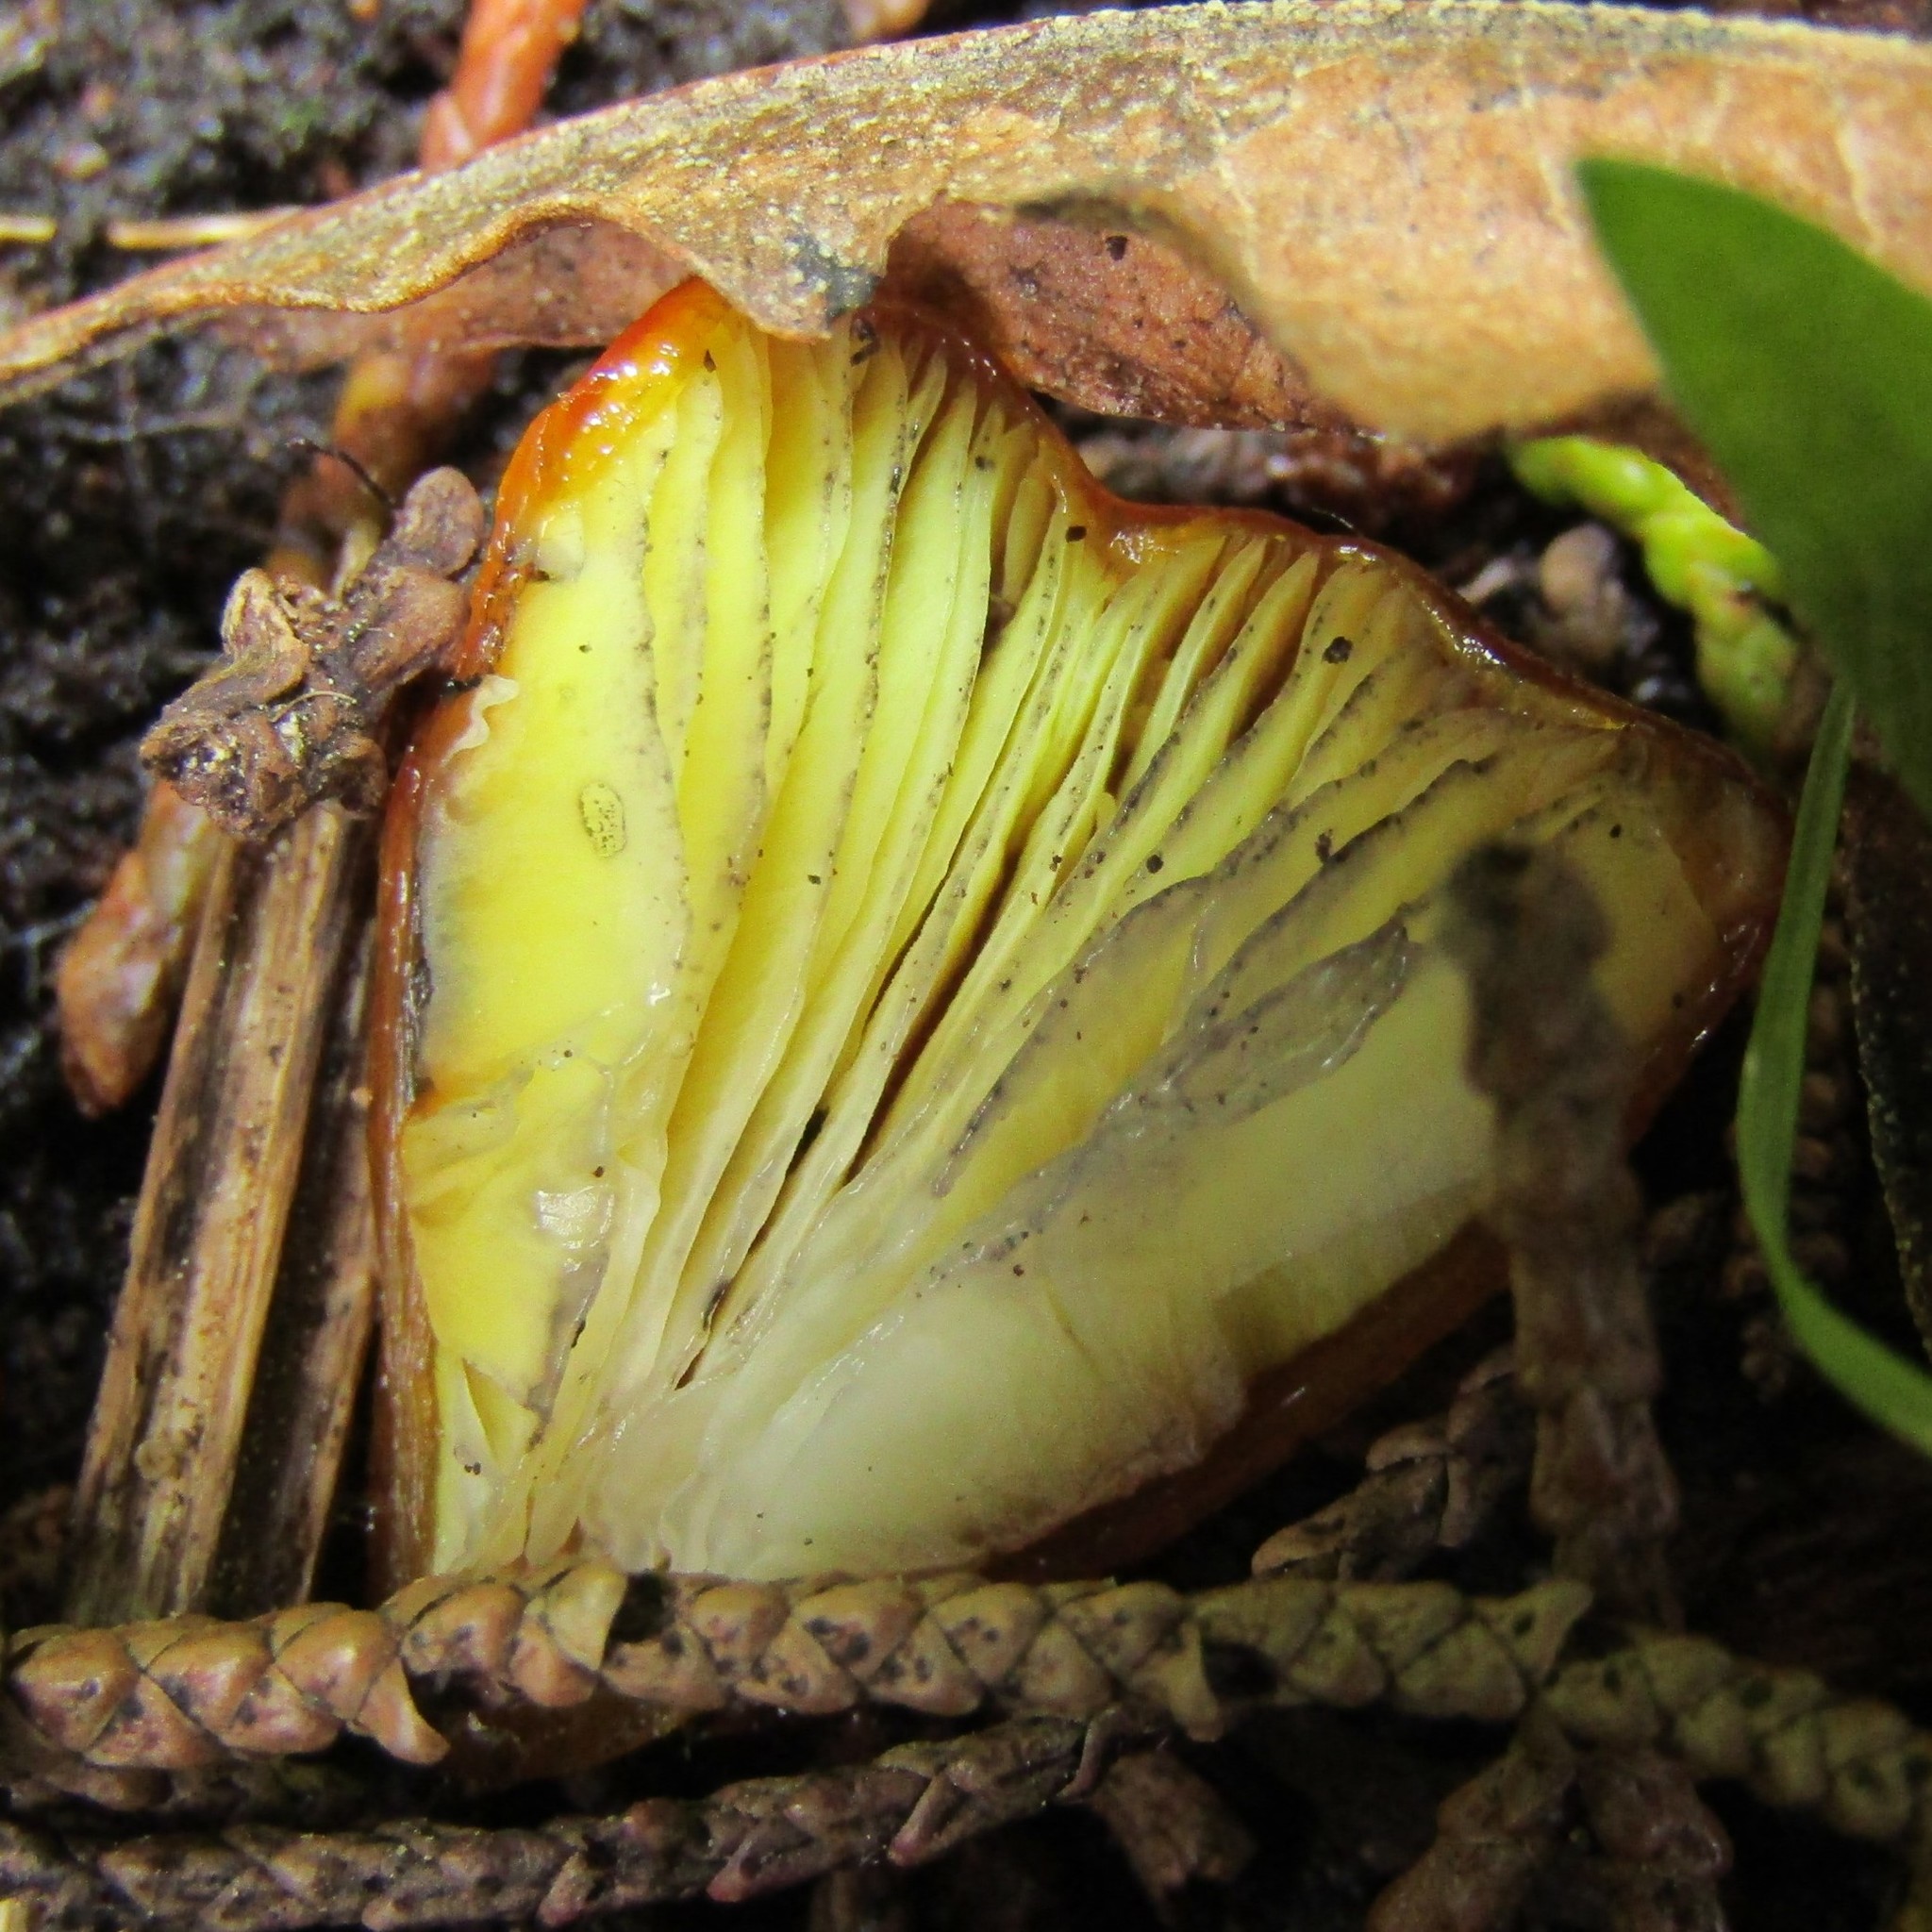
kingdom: Fungi
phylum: Basidiomycota
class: Agaricomycetes
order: Agaricales
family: Hygrophoraceae
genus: Hygrocybe
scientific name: Hygrocybe astatogala
